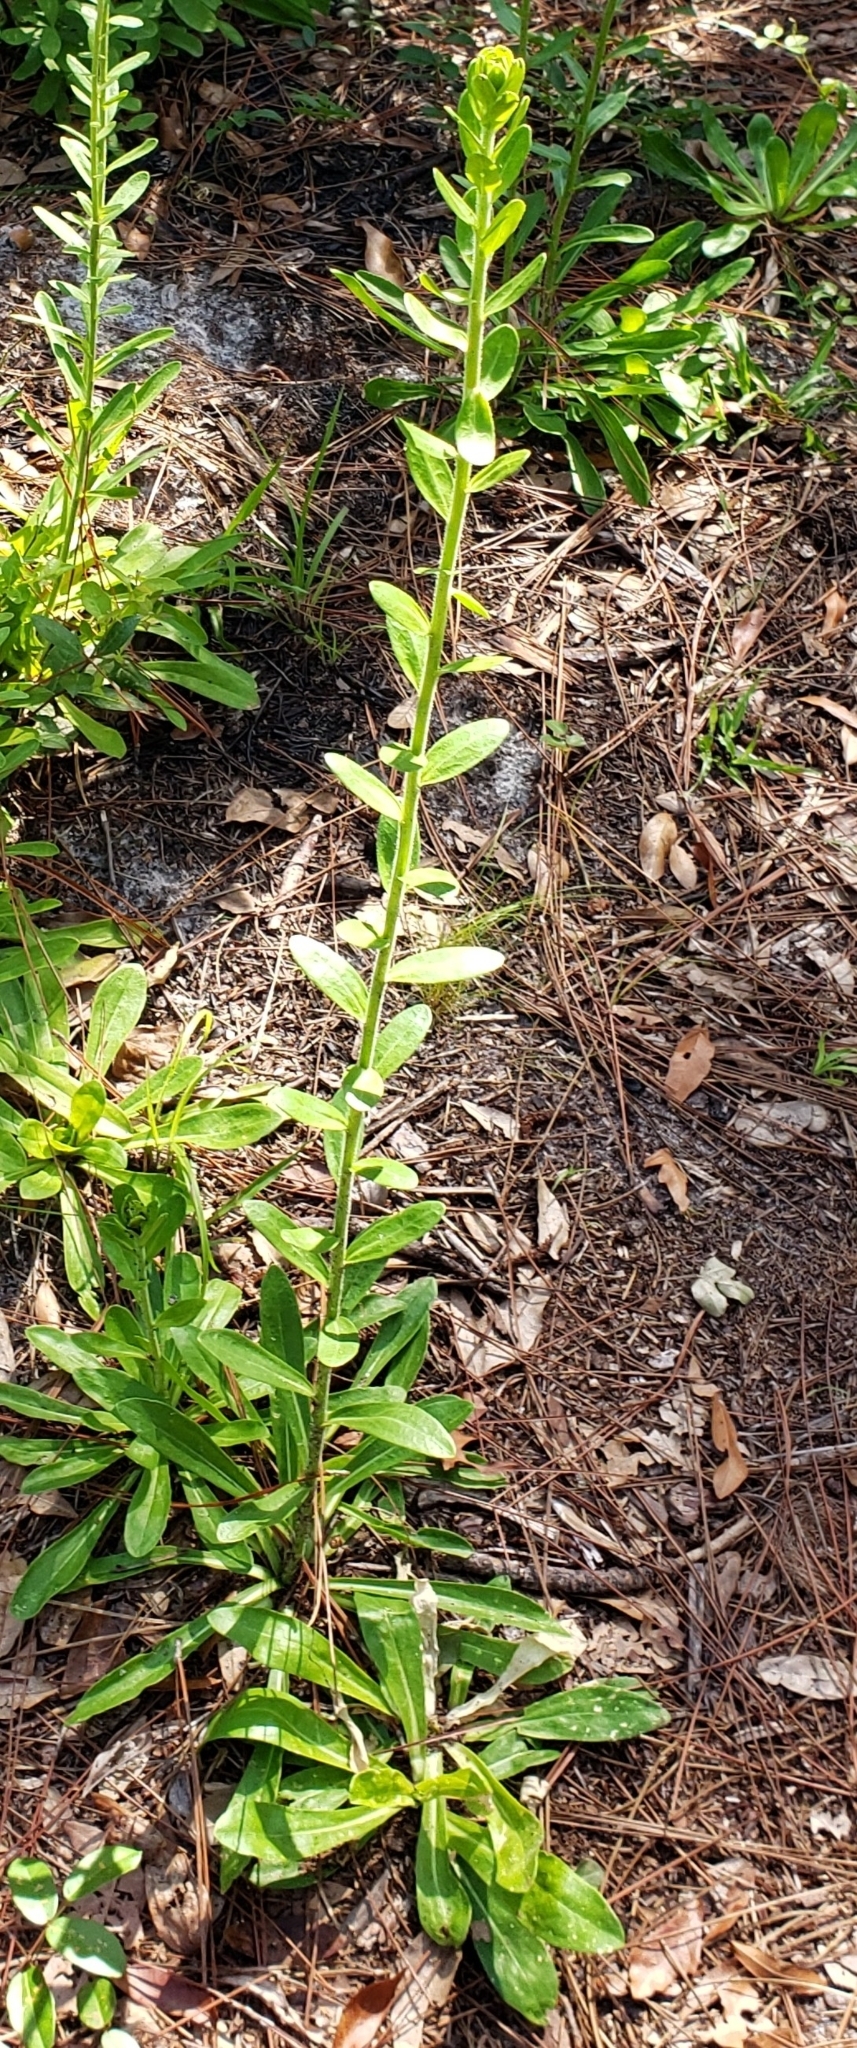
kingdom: Plantae
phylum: Tracheophyta
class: Magnoliopsida
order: Asterales
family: Asteraceae
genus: Carphephorus
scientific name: Carphephorus corymbosus
